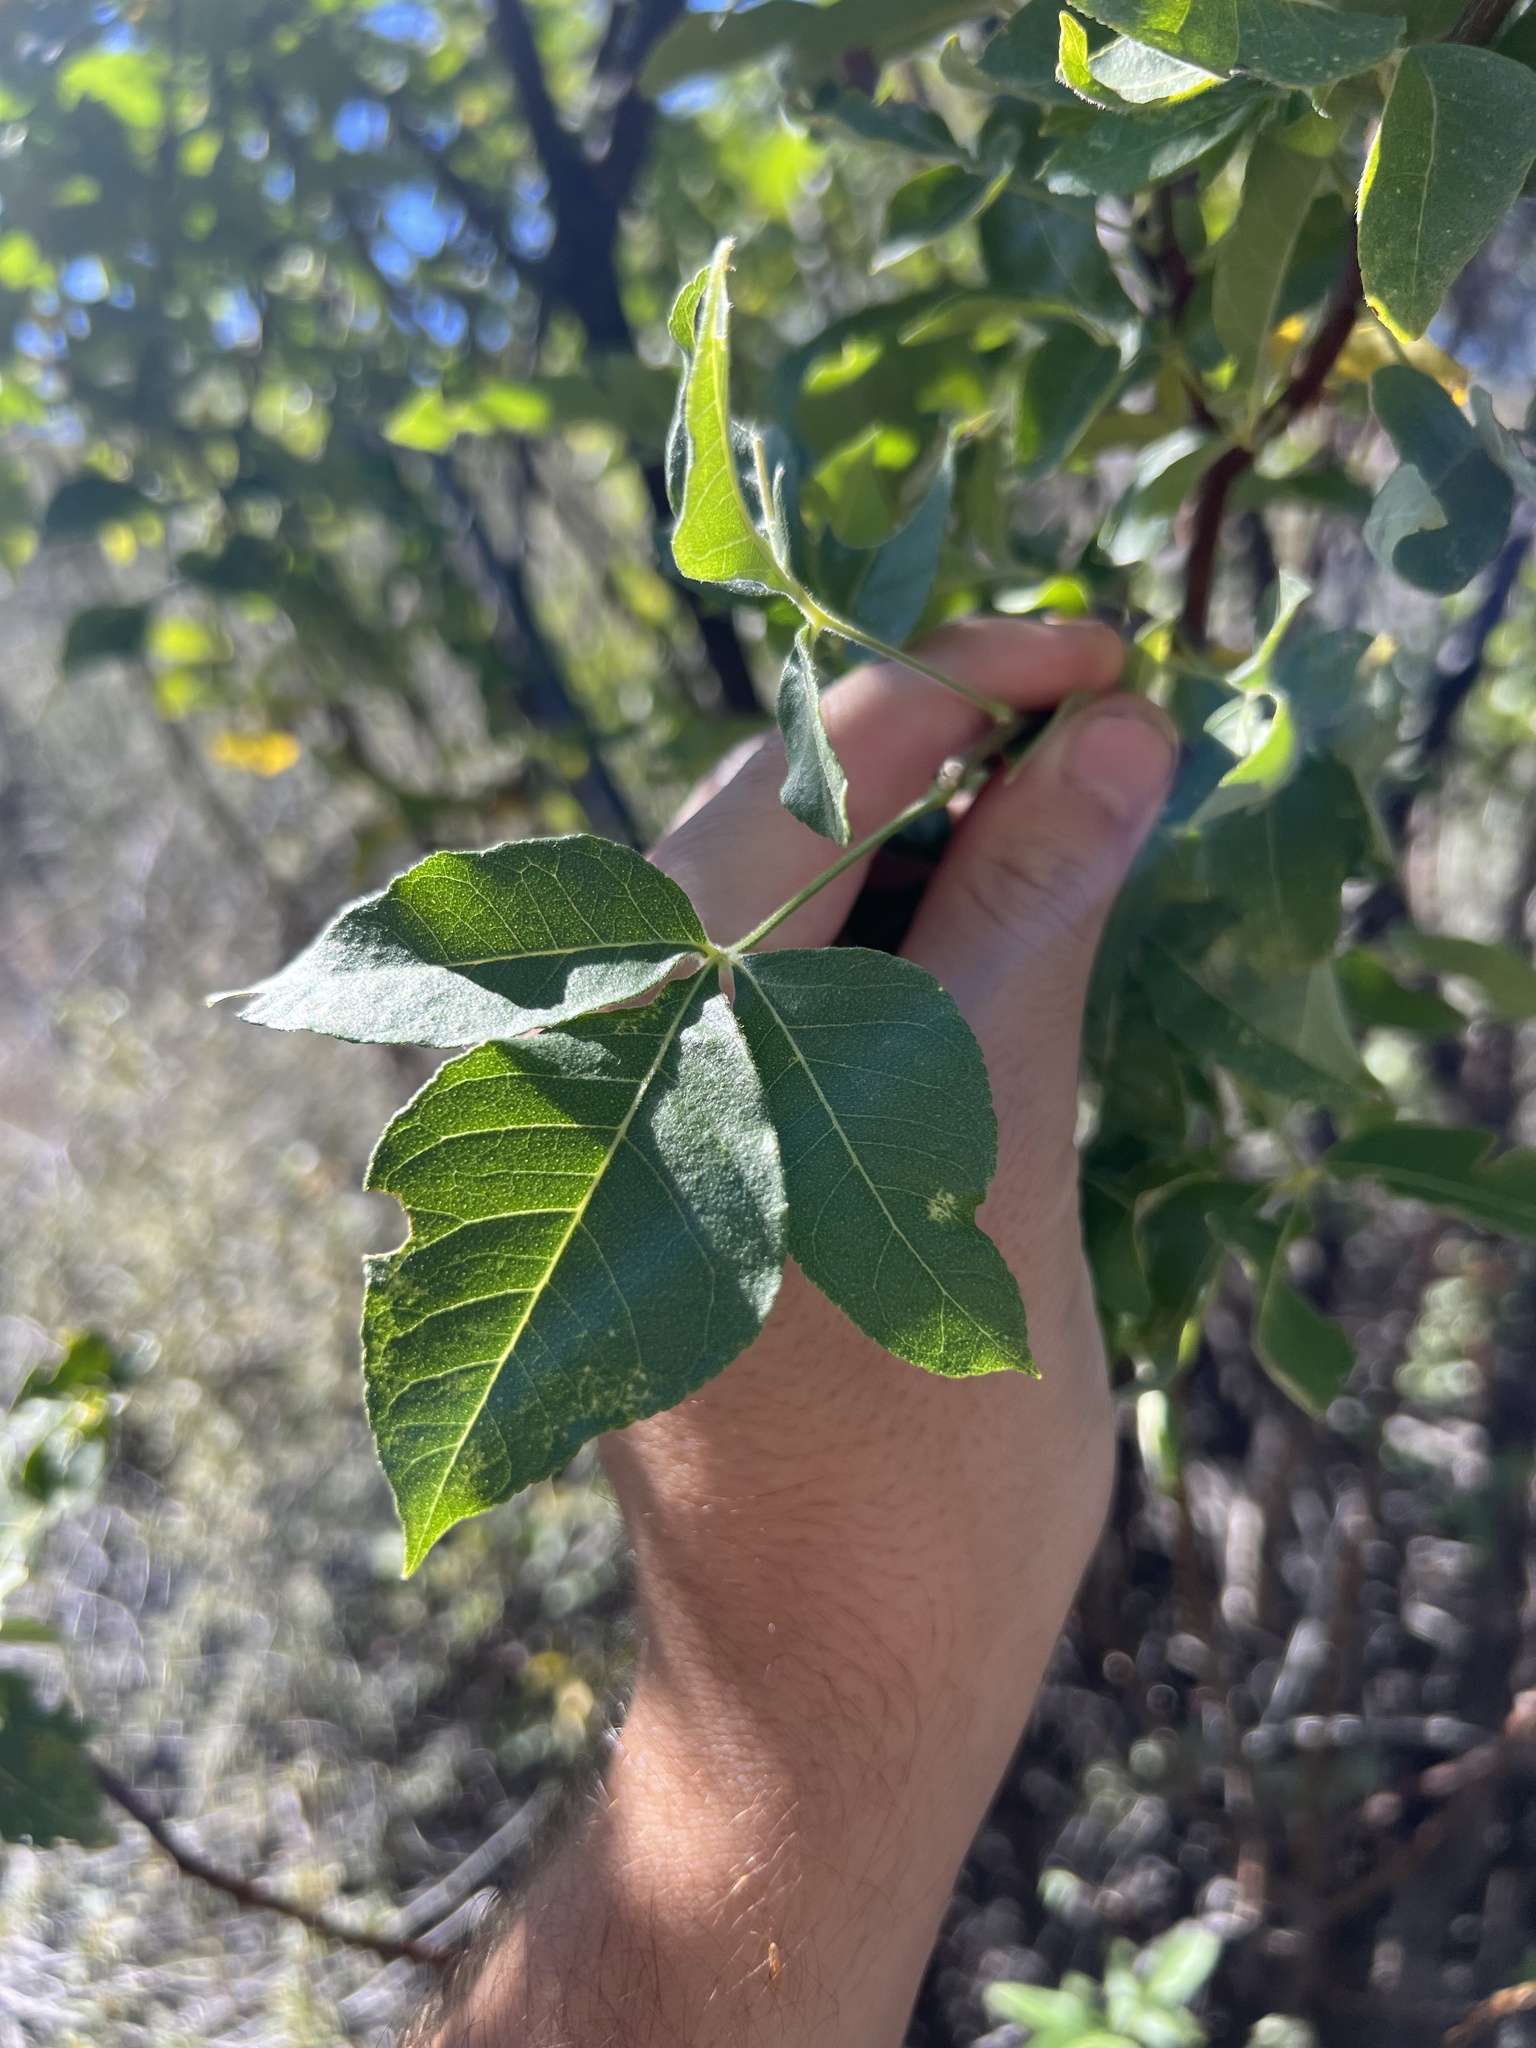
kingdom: Plantae
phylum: Tracheophyta
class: Magnoliopsida
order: Sapindales
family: Rutaceae
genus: Ptelea
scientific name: Ptelea trifoliata
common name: Common hop-tree
